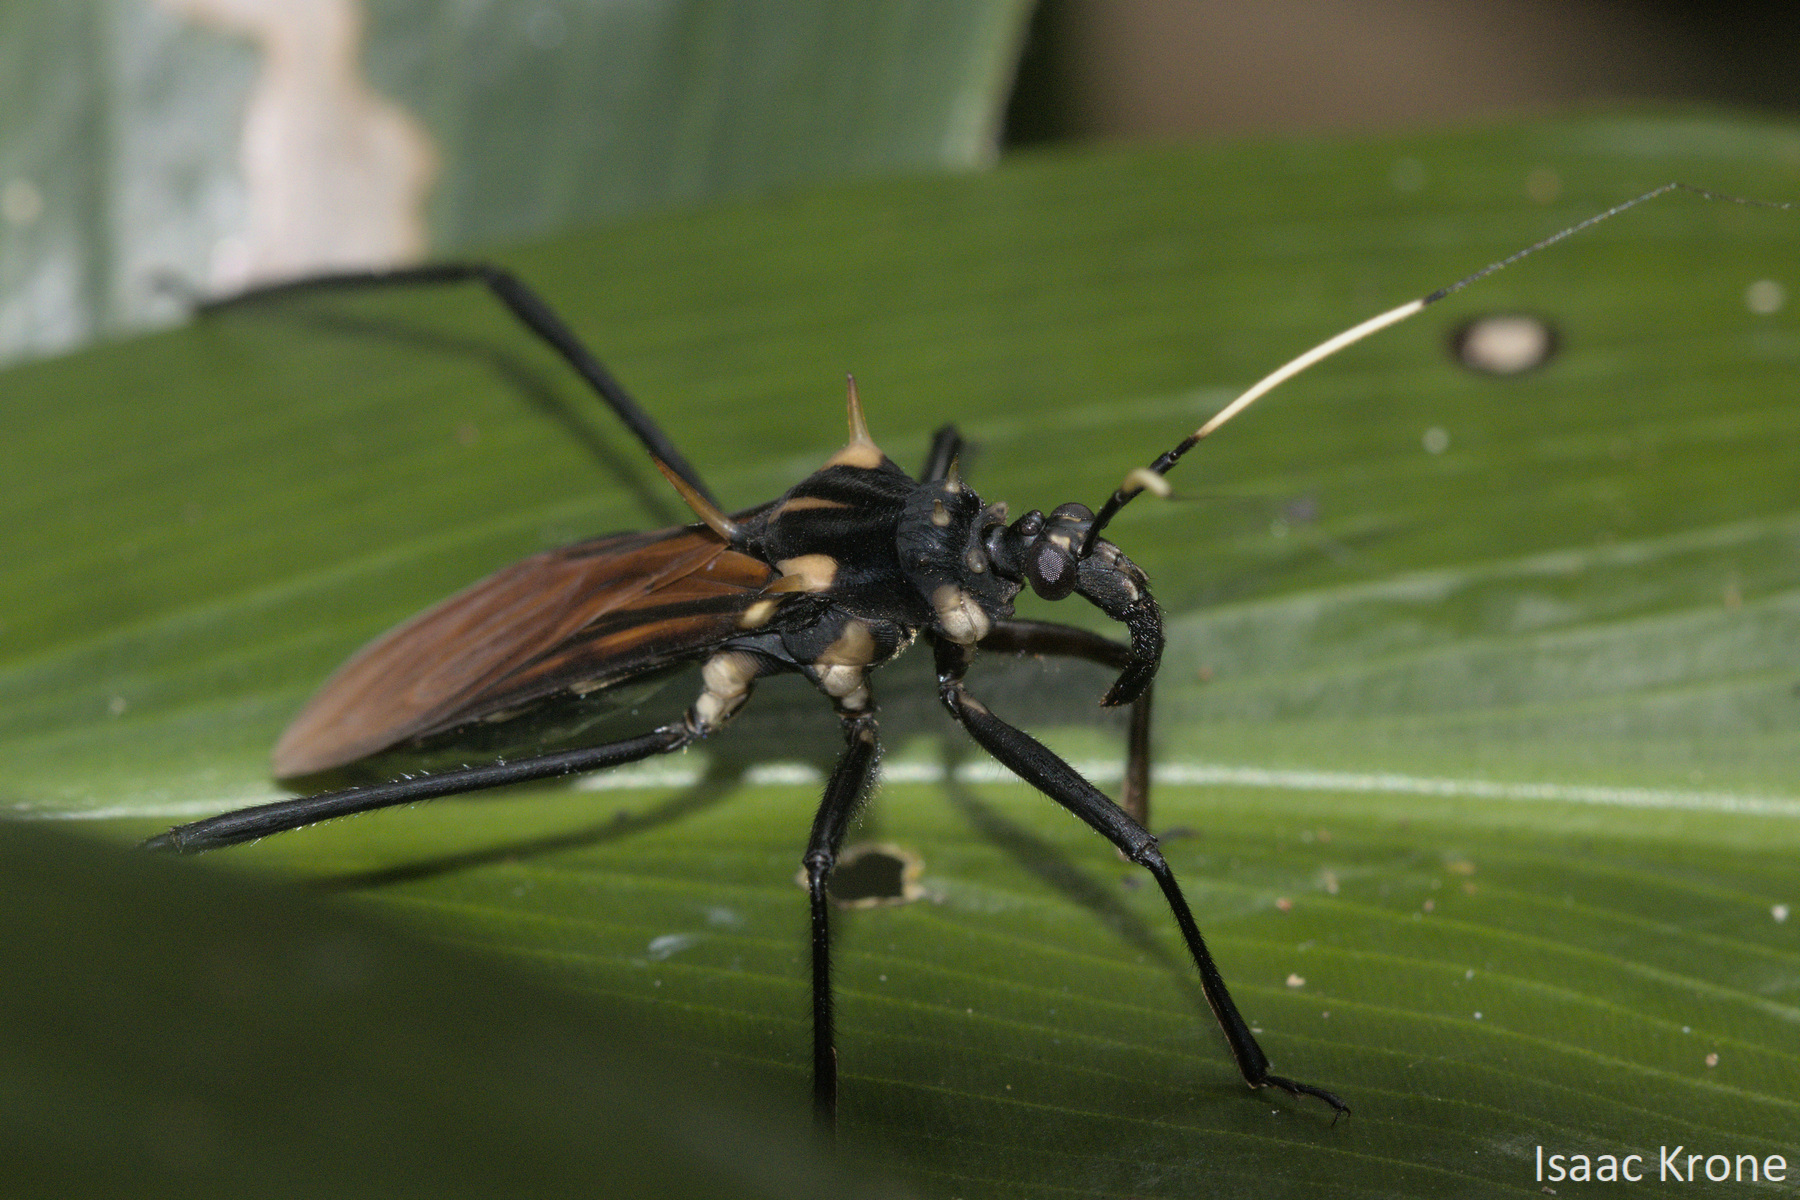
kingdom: Animalia
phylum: Arthropoda
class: Insecta
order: Hemiptera
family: Reduviidae
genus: Zelurus
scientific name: Zelurus festivus
